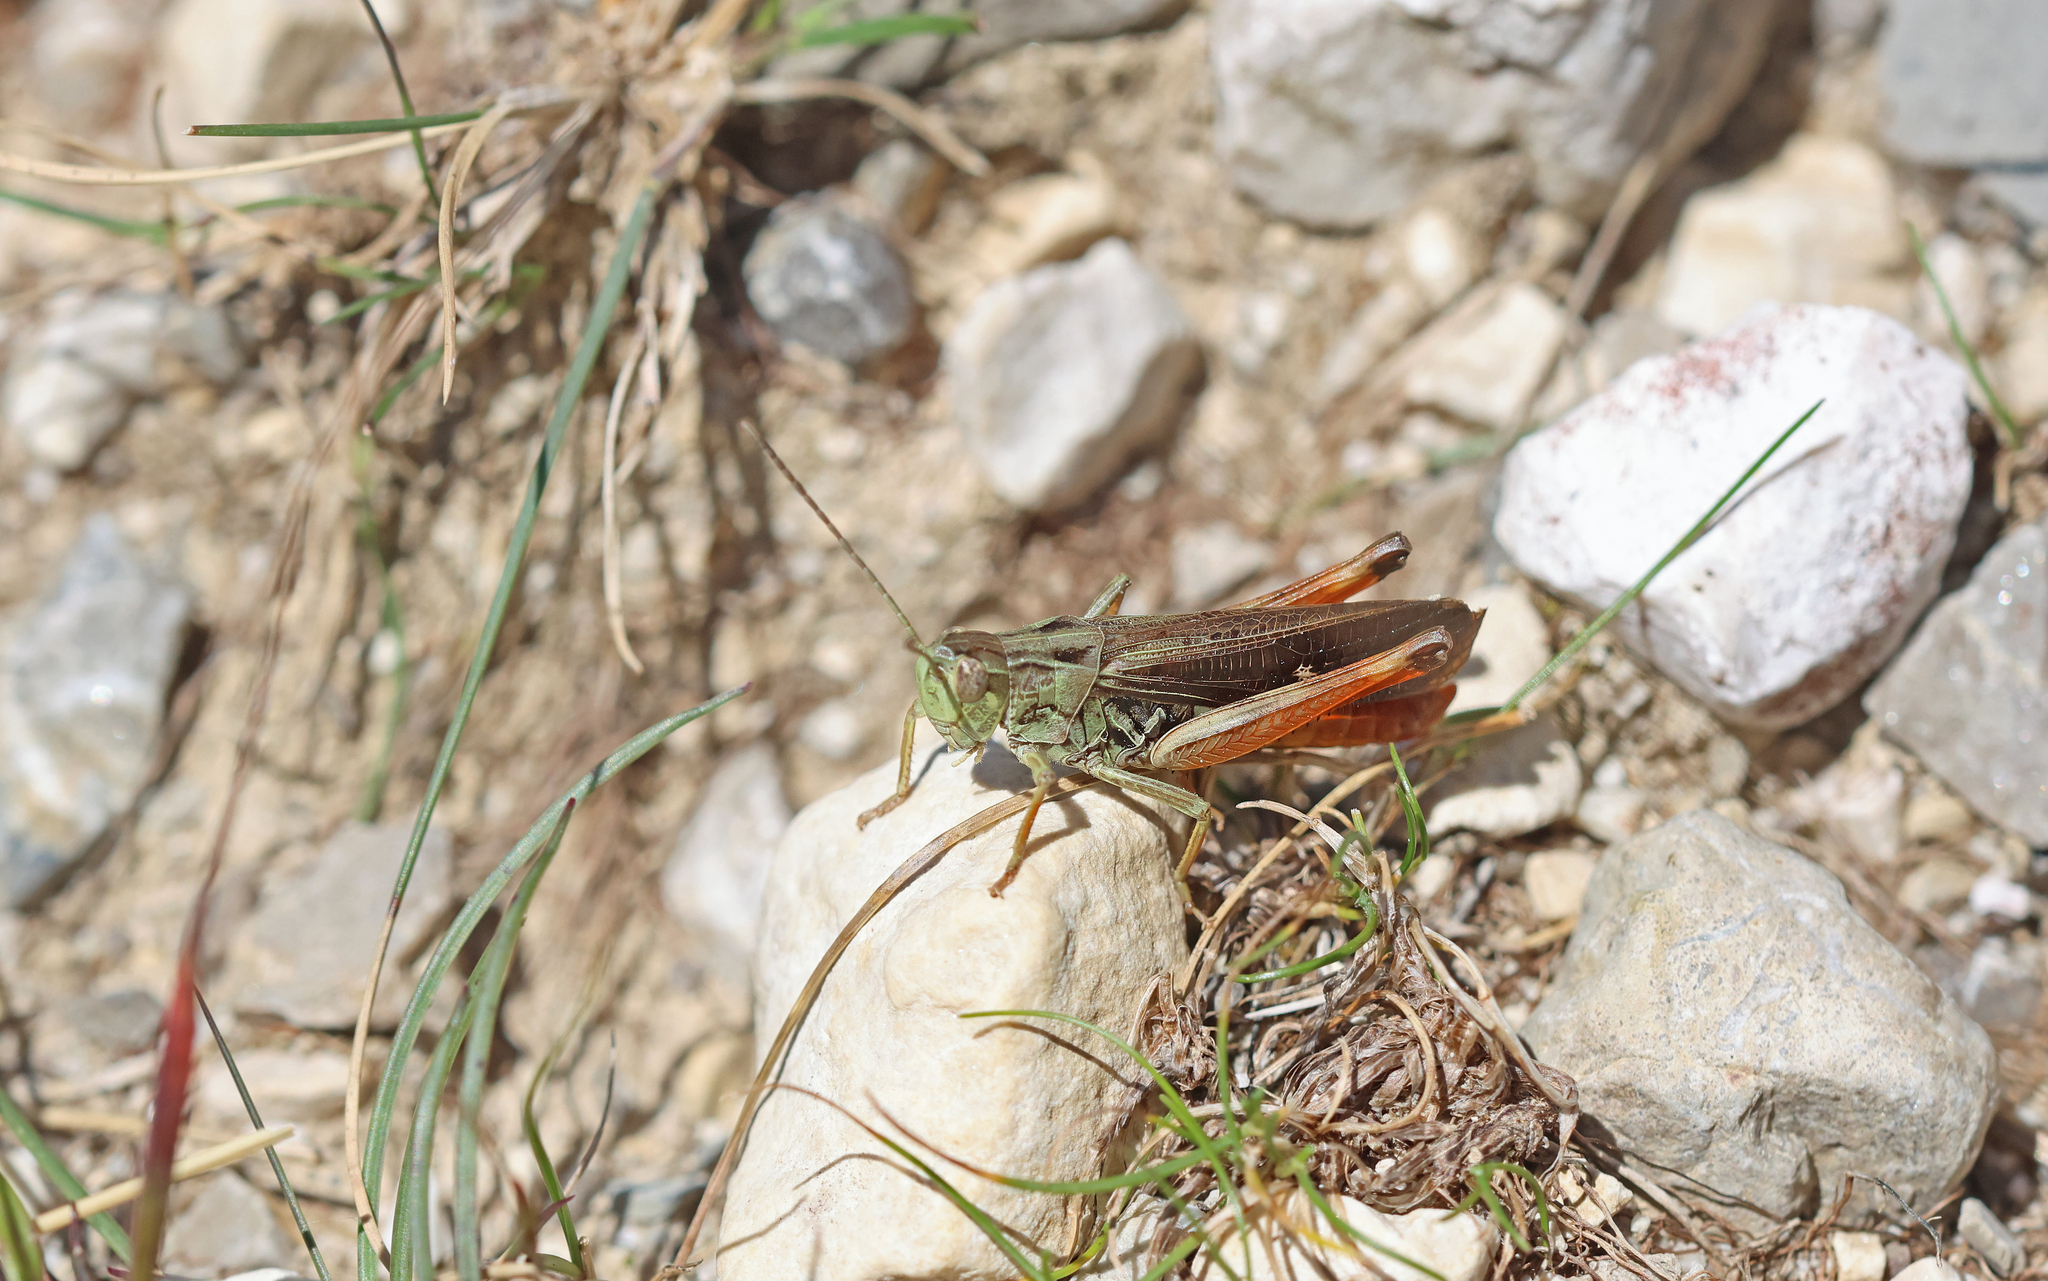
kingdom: Animalia
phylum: Arthropoda
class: Insecta
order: Orthoptera
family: Acrididae
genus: Stenobothrus
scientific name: Stenobothrus rubicundulus
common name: Wing-buzzing grasshopper
